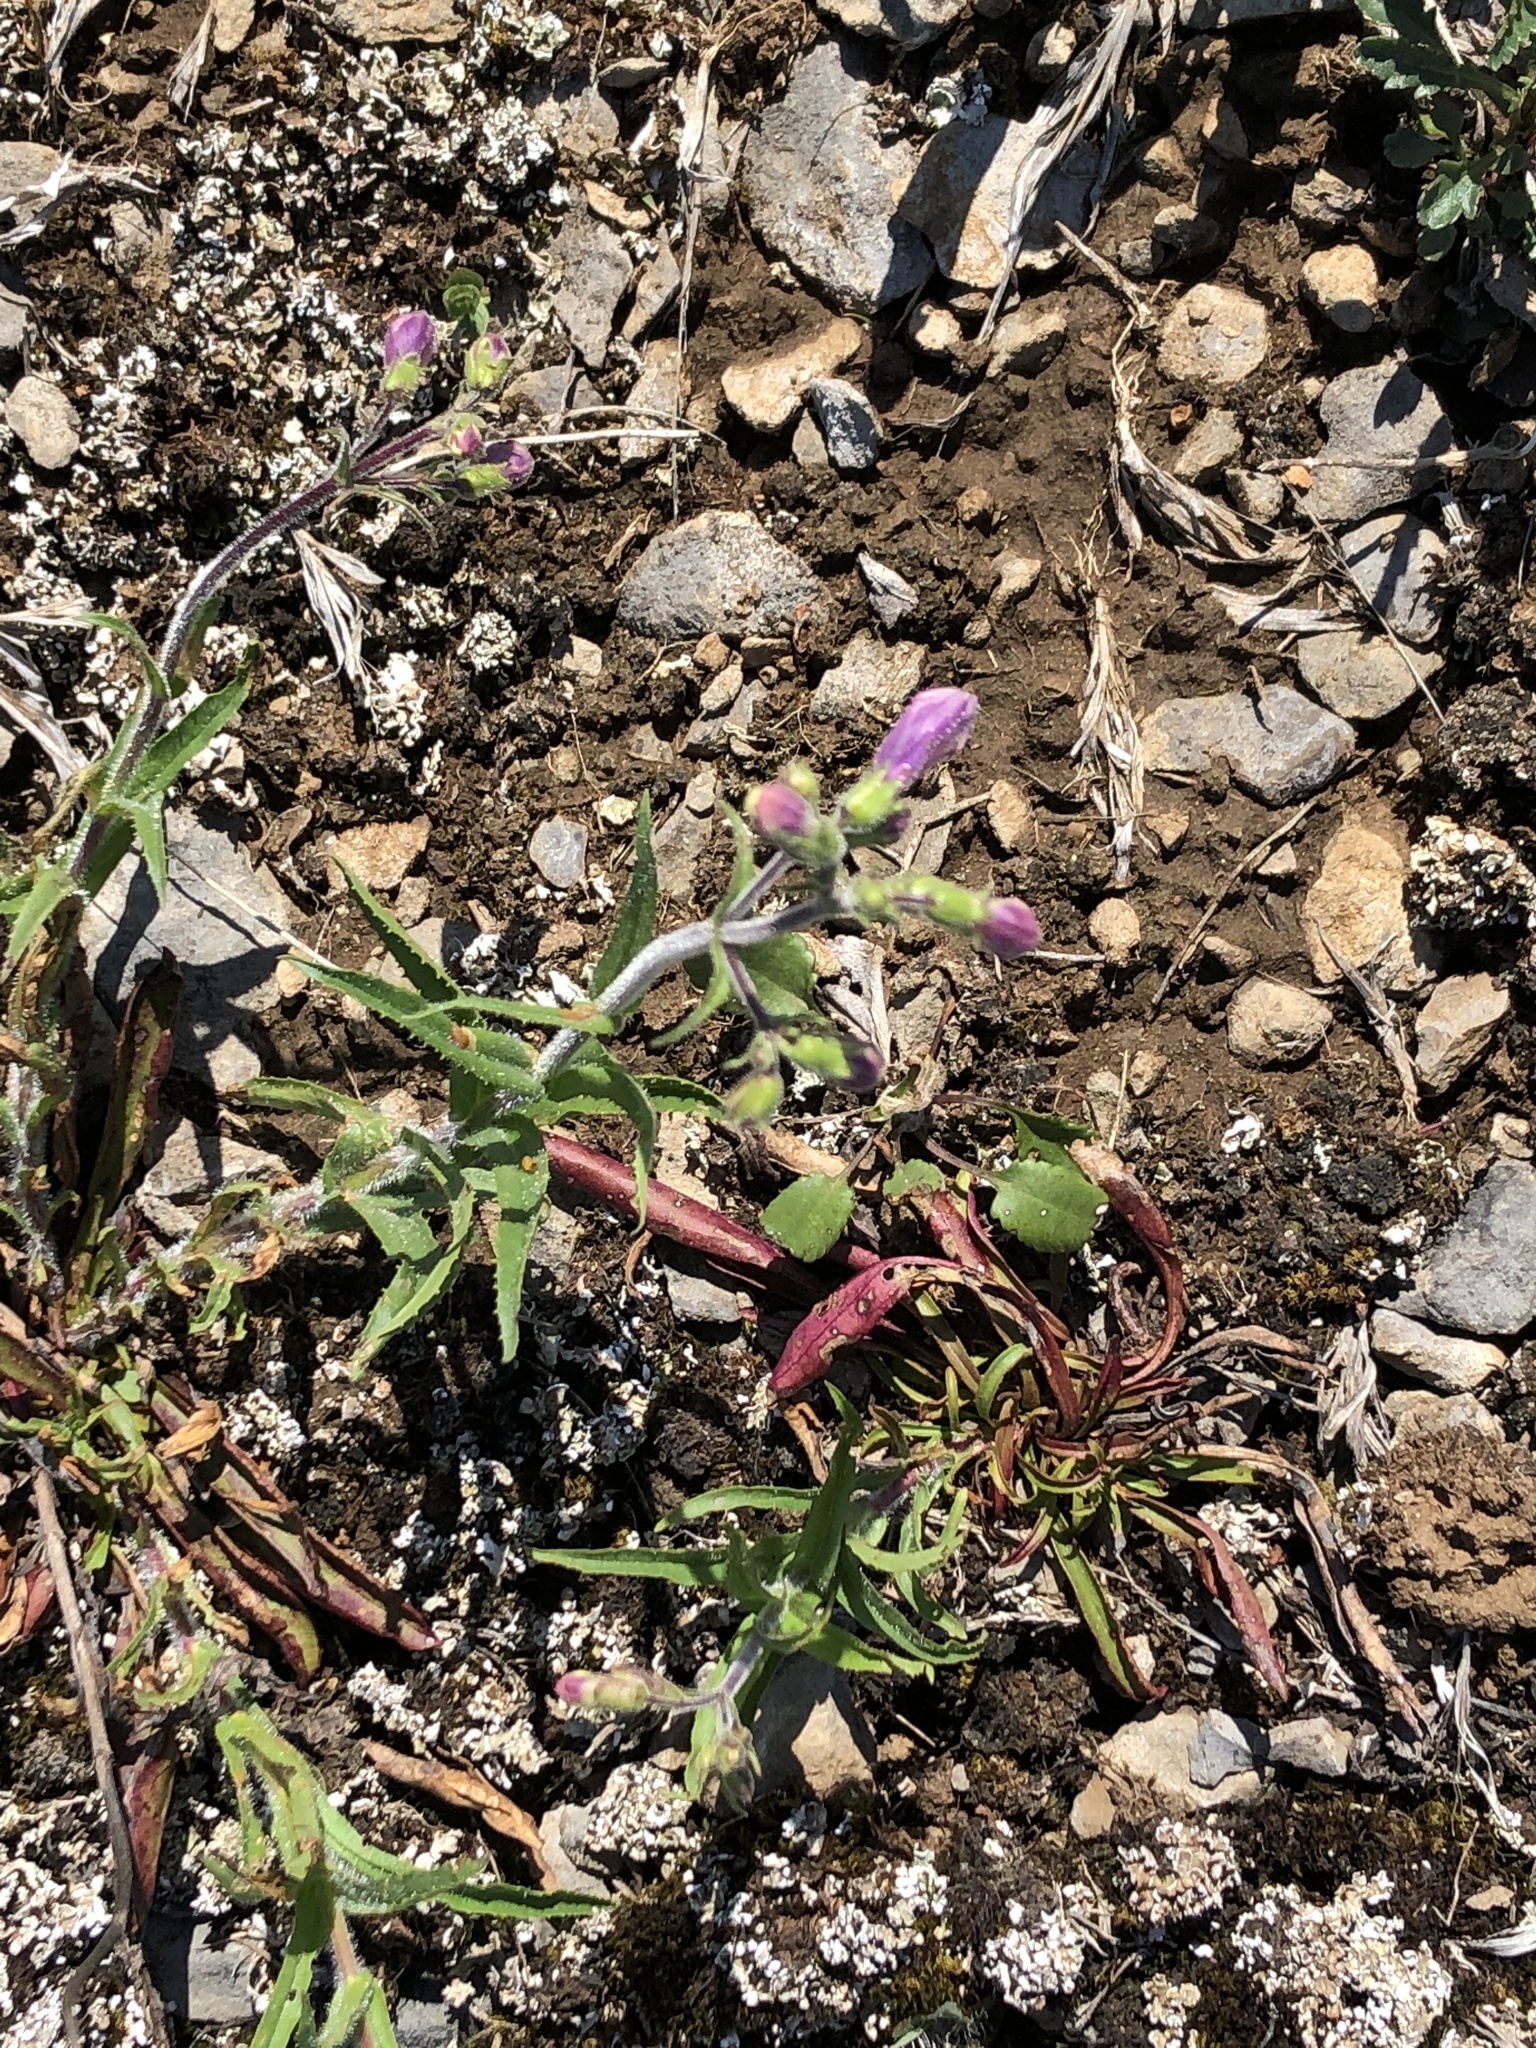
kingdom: Plantae
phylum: Tracheophyta
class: Magnoliopsida
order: Lamiales
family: Plantaginaceae
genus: Penstemon
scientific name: Penstemon hirsutus
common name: Hairy beardtongue
